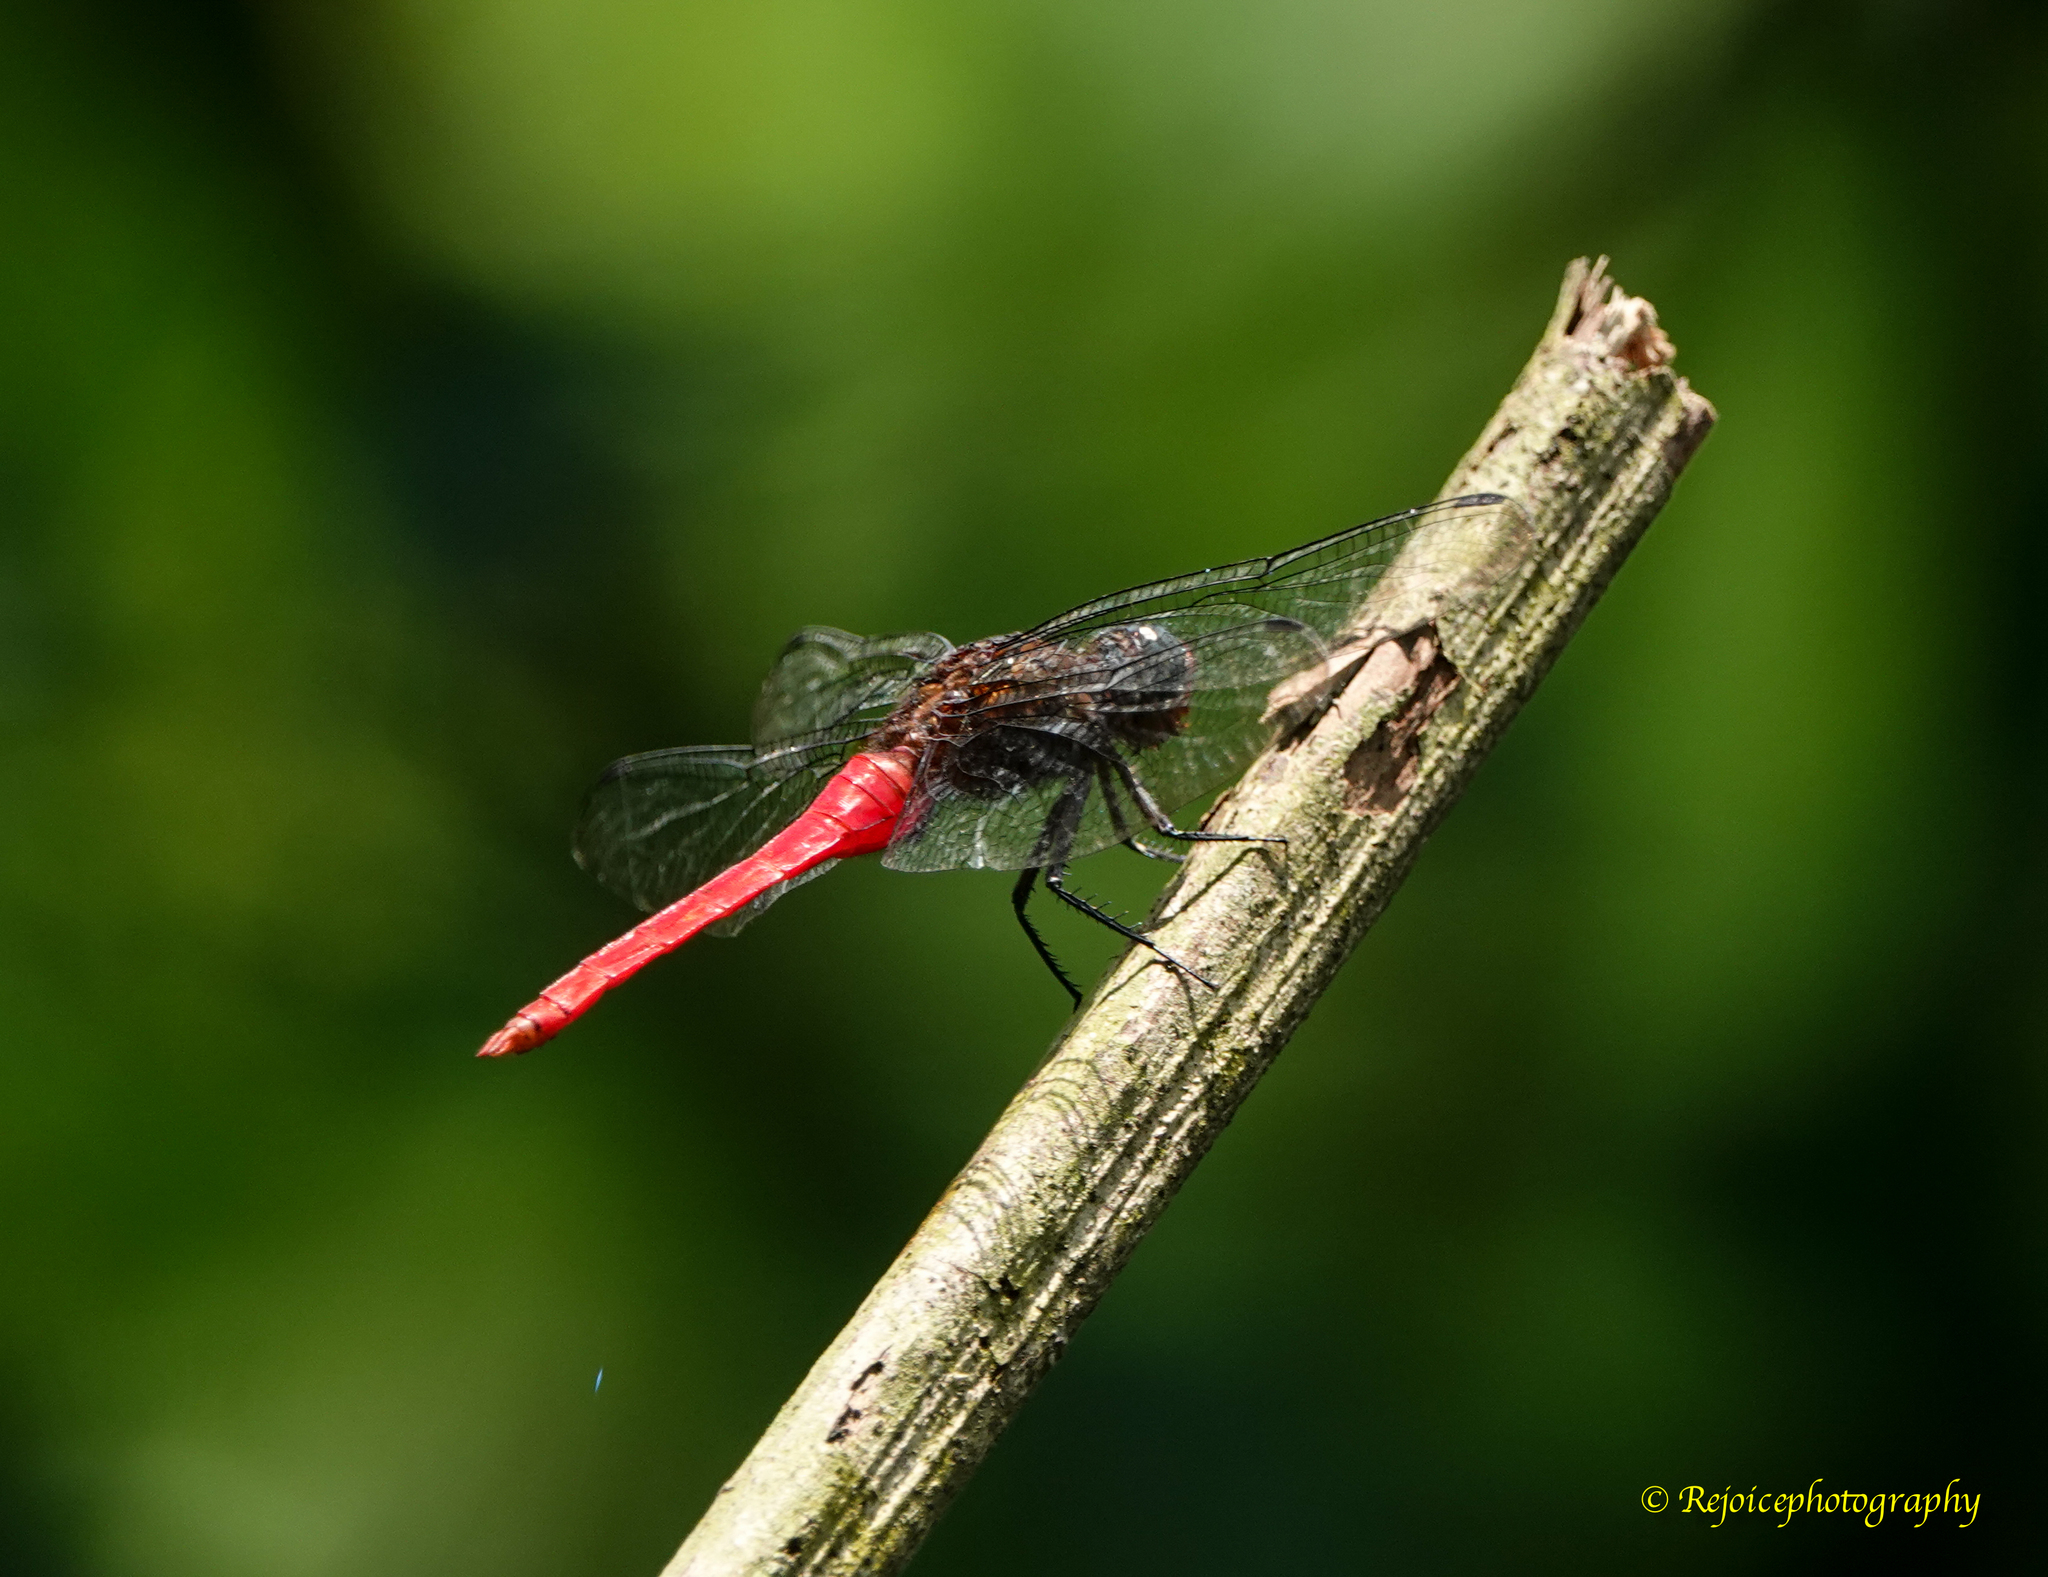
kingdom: Animalia
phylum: Arthropoda
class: Insecta
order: Odonata
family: Libellulidae
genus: Orthetrum
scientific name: Orthetrum pruinosum
